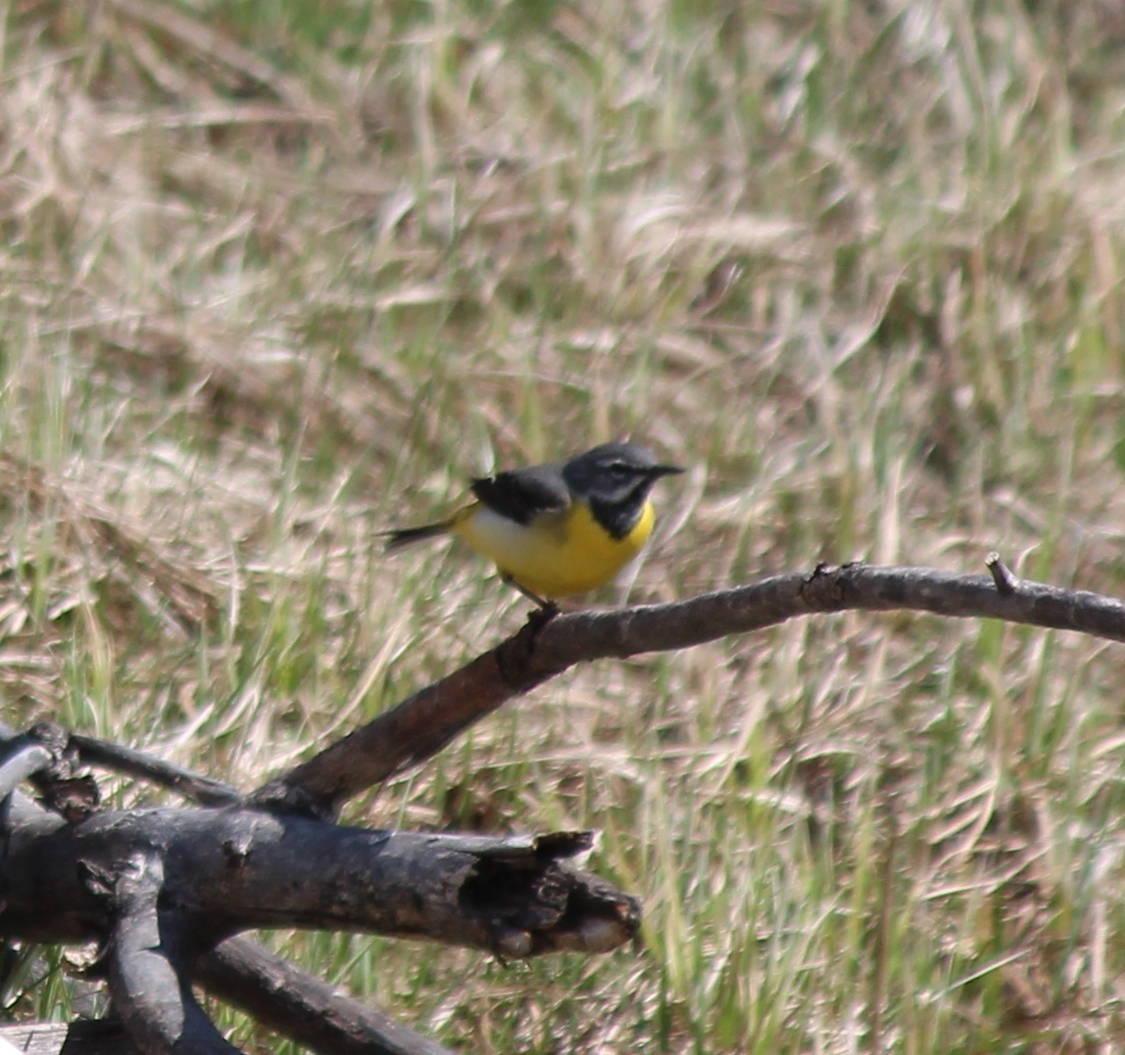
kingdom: Animalia
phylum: Chordata
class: Aves
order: Passeriformes
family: Motacillidae
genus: Motacilla
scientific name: Motacilla cinerea
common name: Grey wagtail
